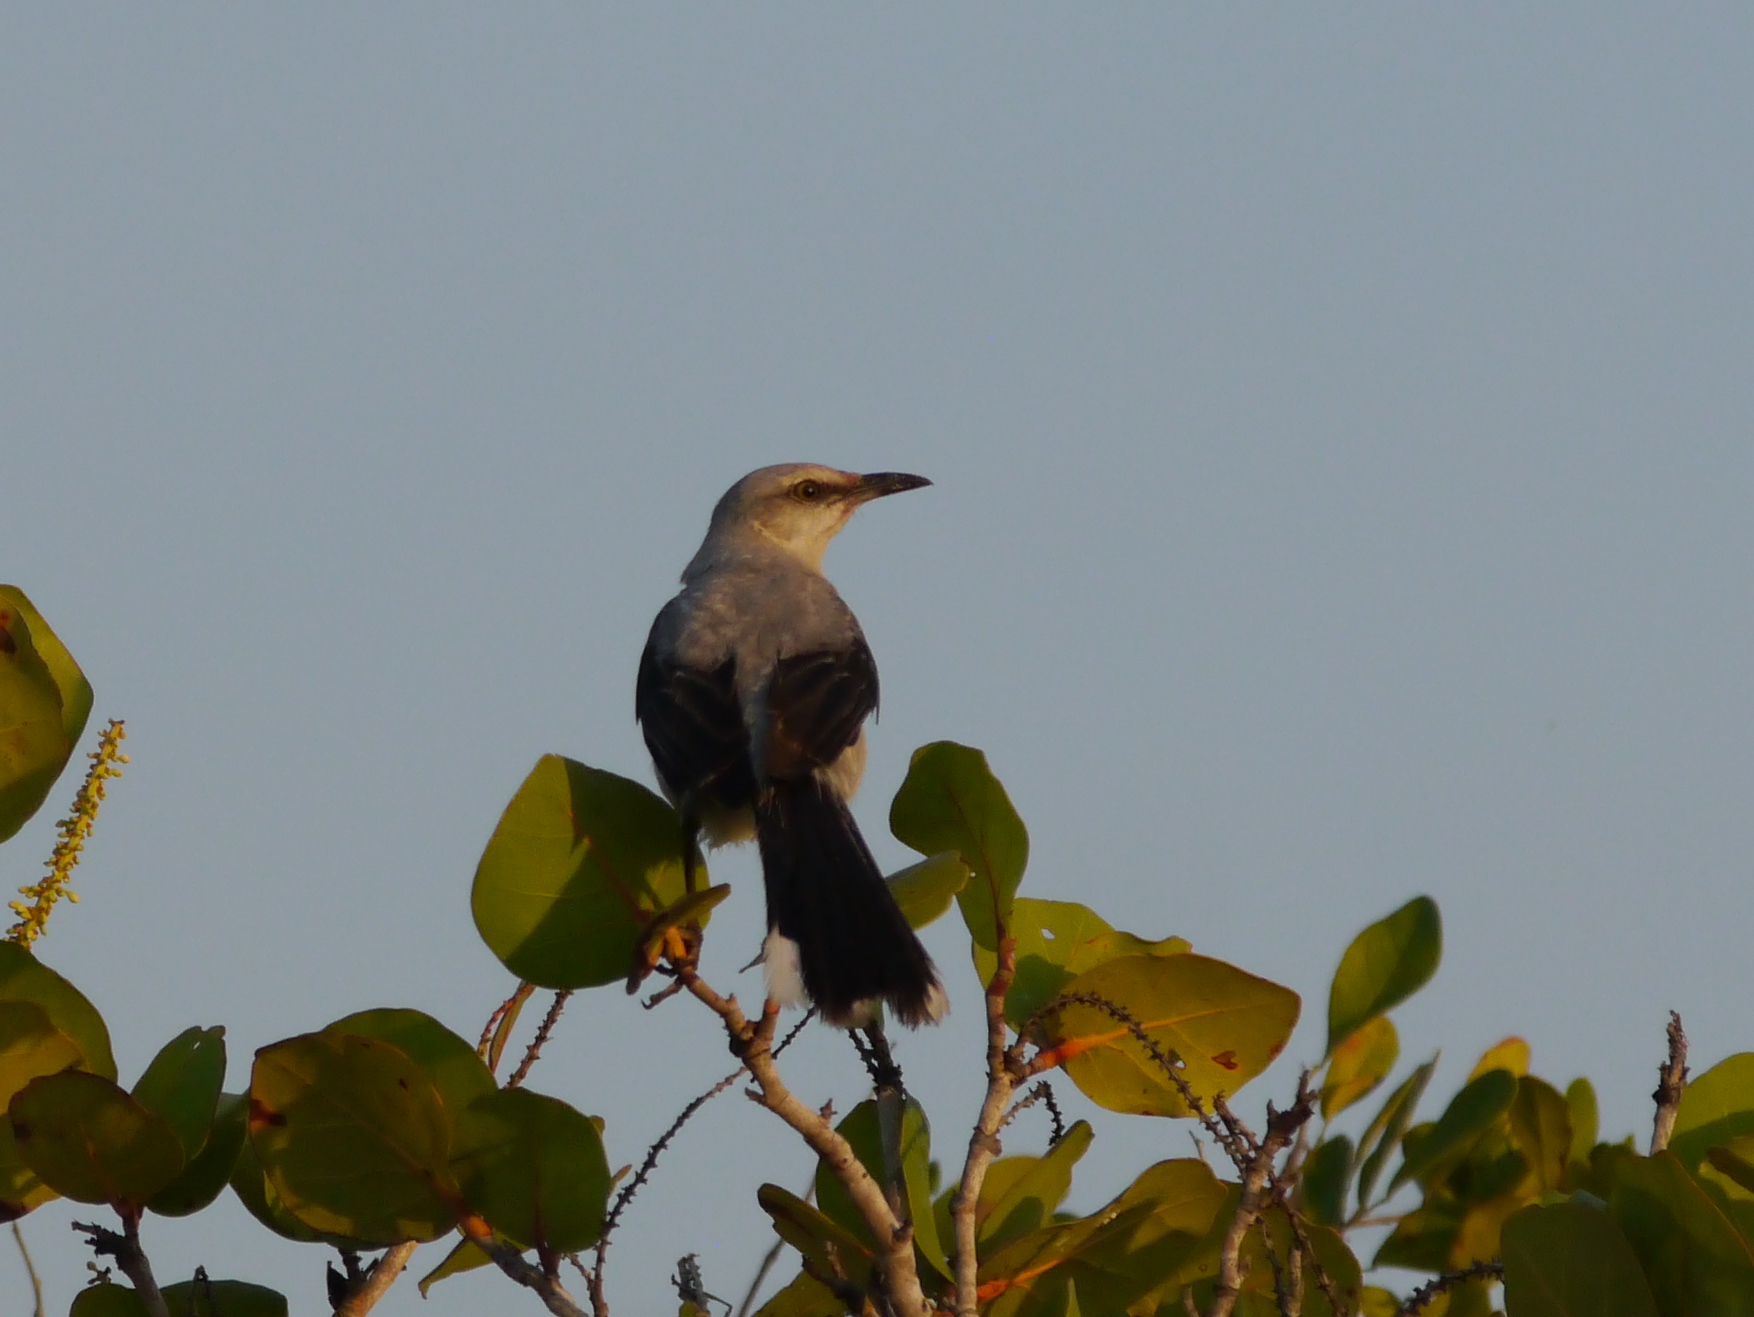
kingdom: Animalia
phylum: Chordata
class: Aves
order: Passeriformes
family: Mimidae
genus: Mimus
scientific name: Mimus gilvus
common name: Tropical mockingbird
